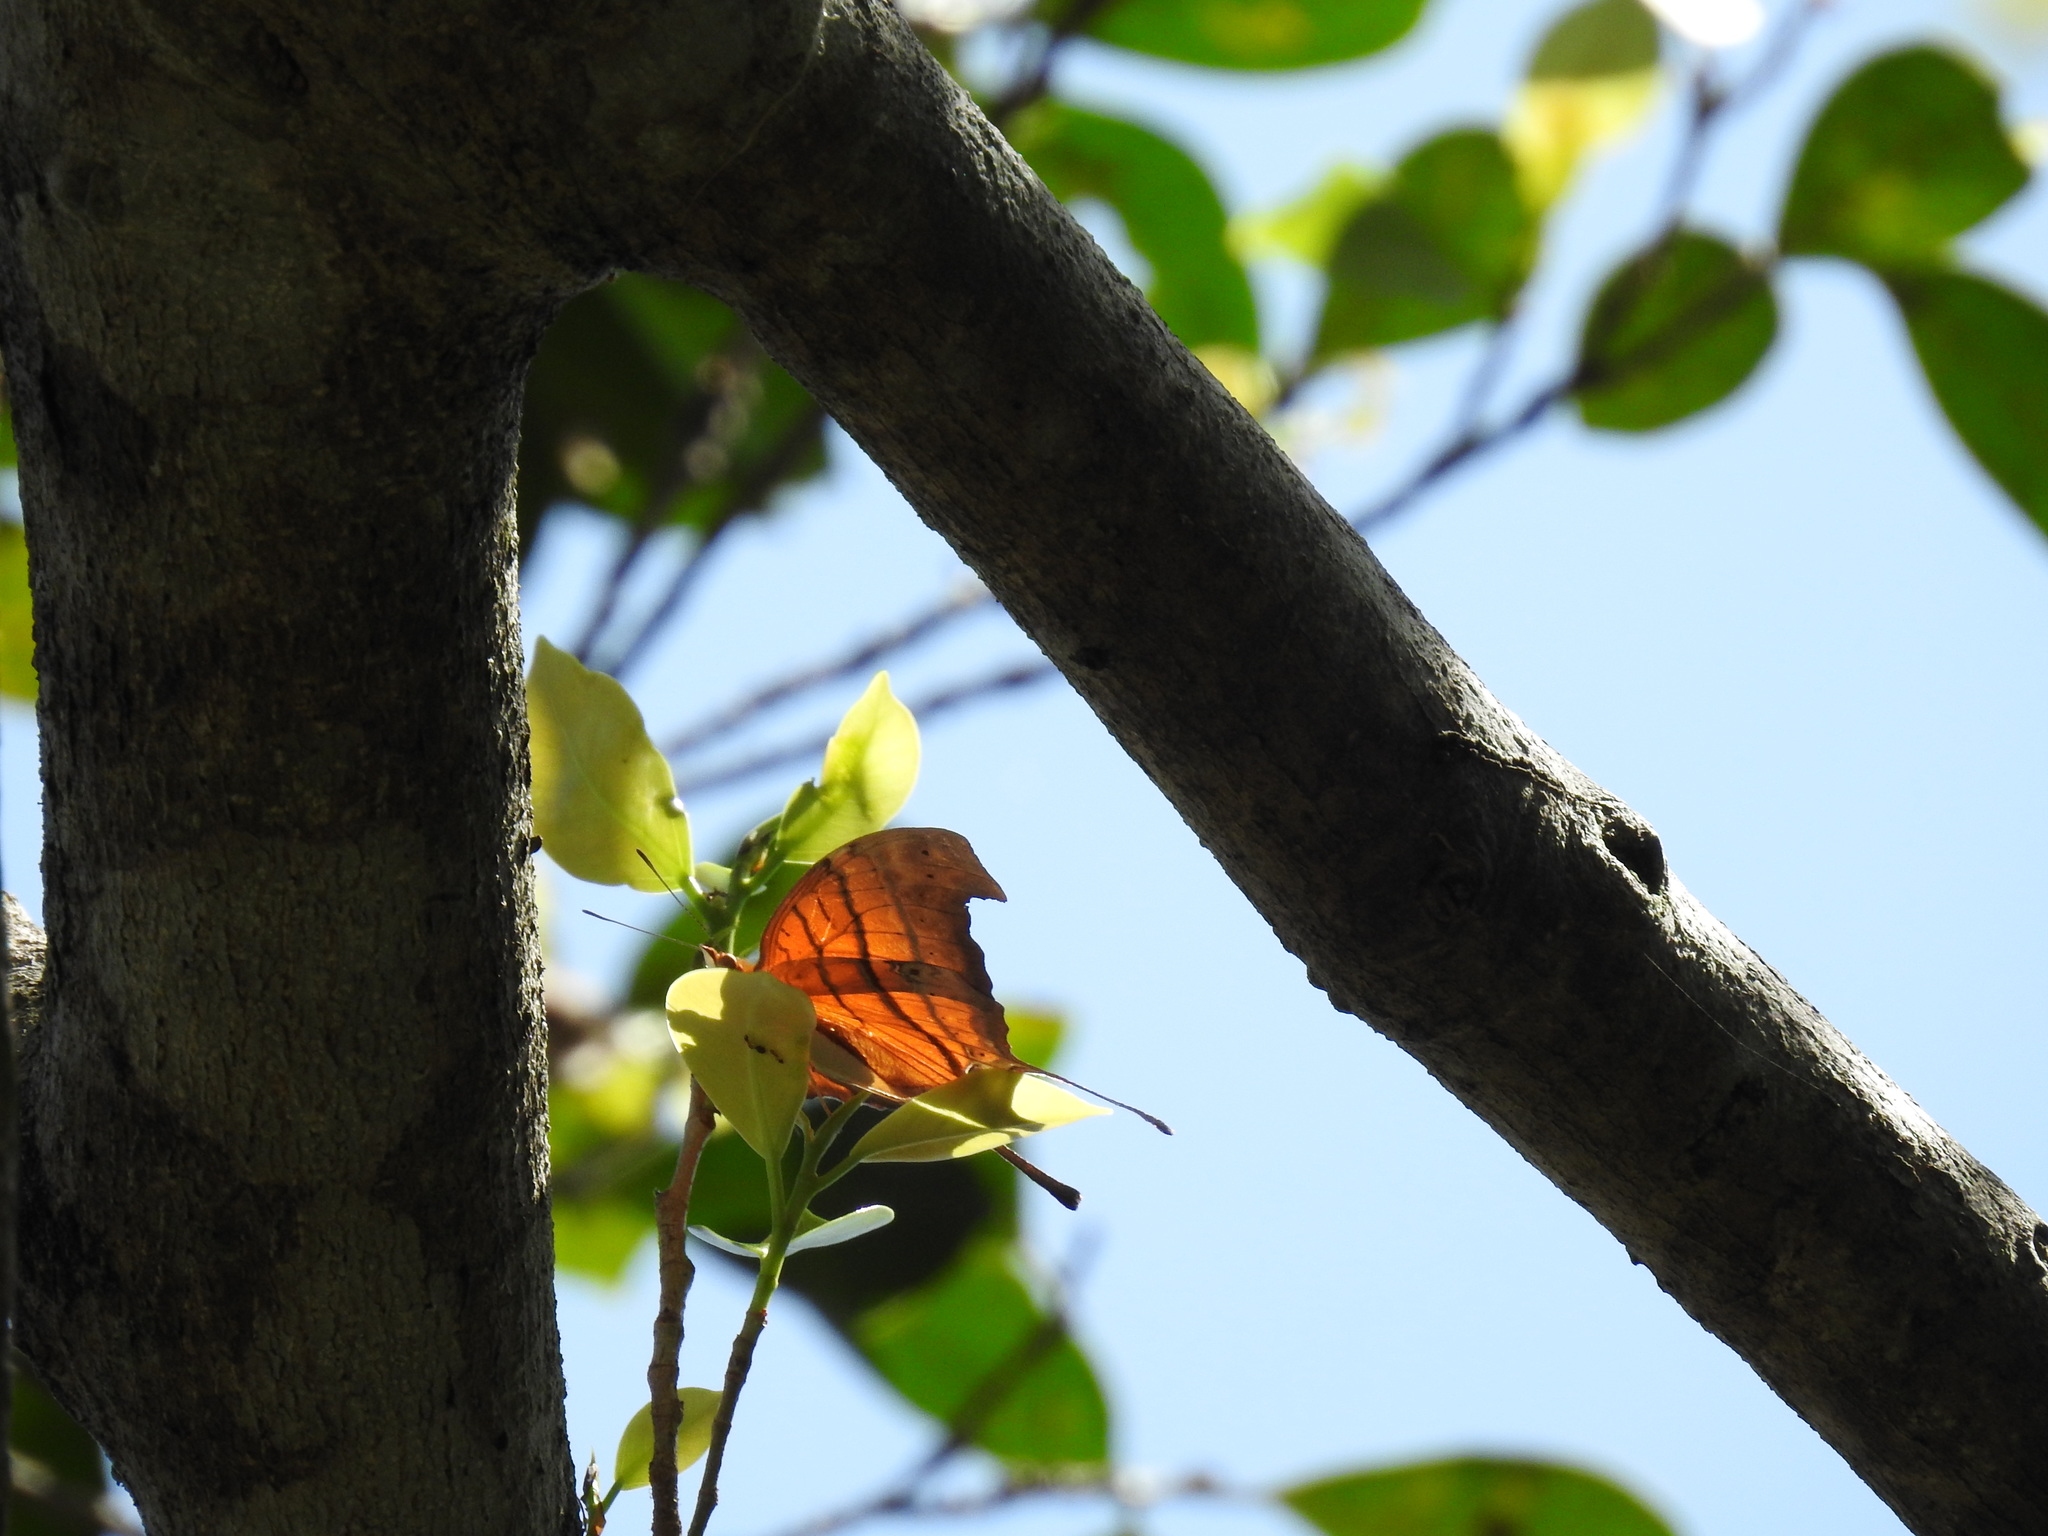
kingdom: Animalia
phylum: Arthropoda
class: Insecta
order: Lepidoptera
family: Nymphalidae
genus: Marpesia
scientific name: Marpesia petreus
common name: Red dagger wing
